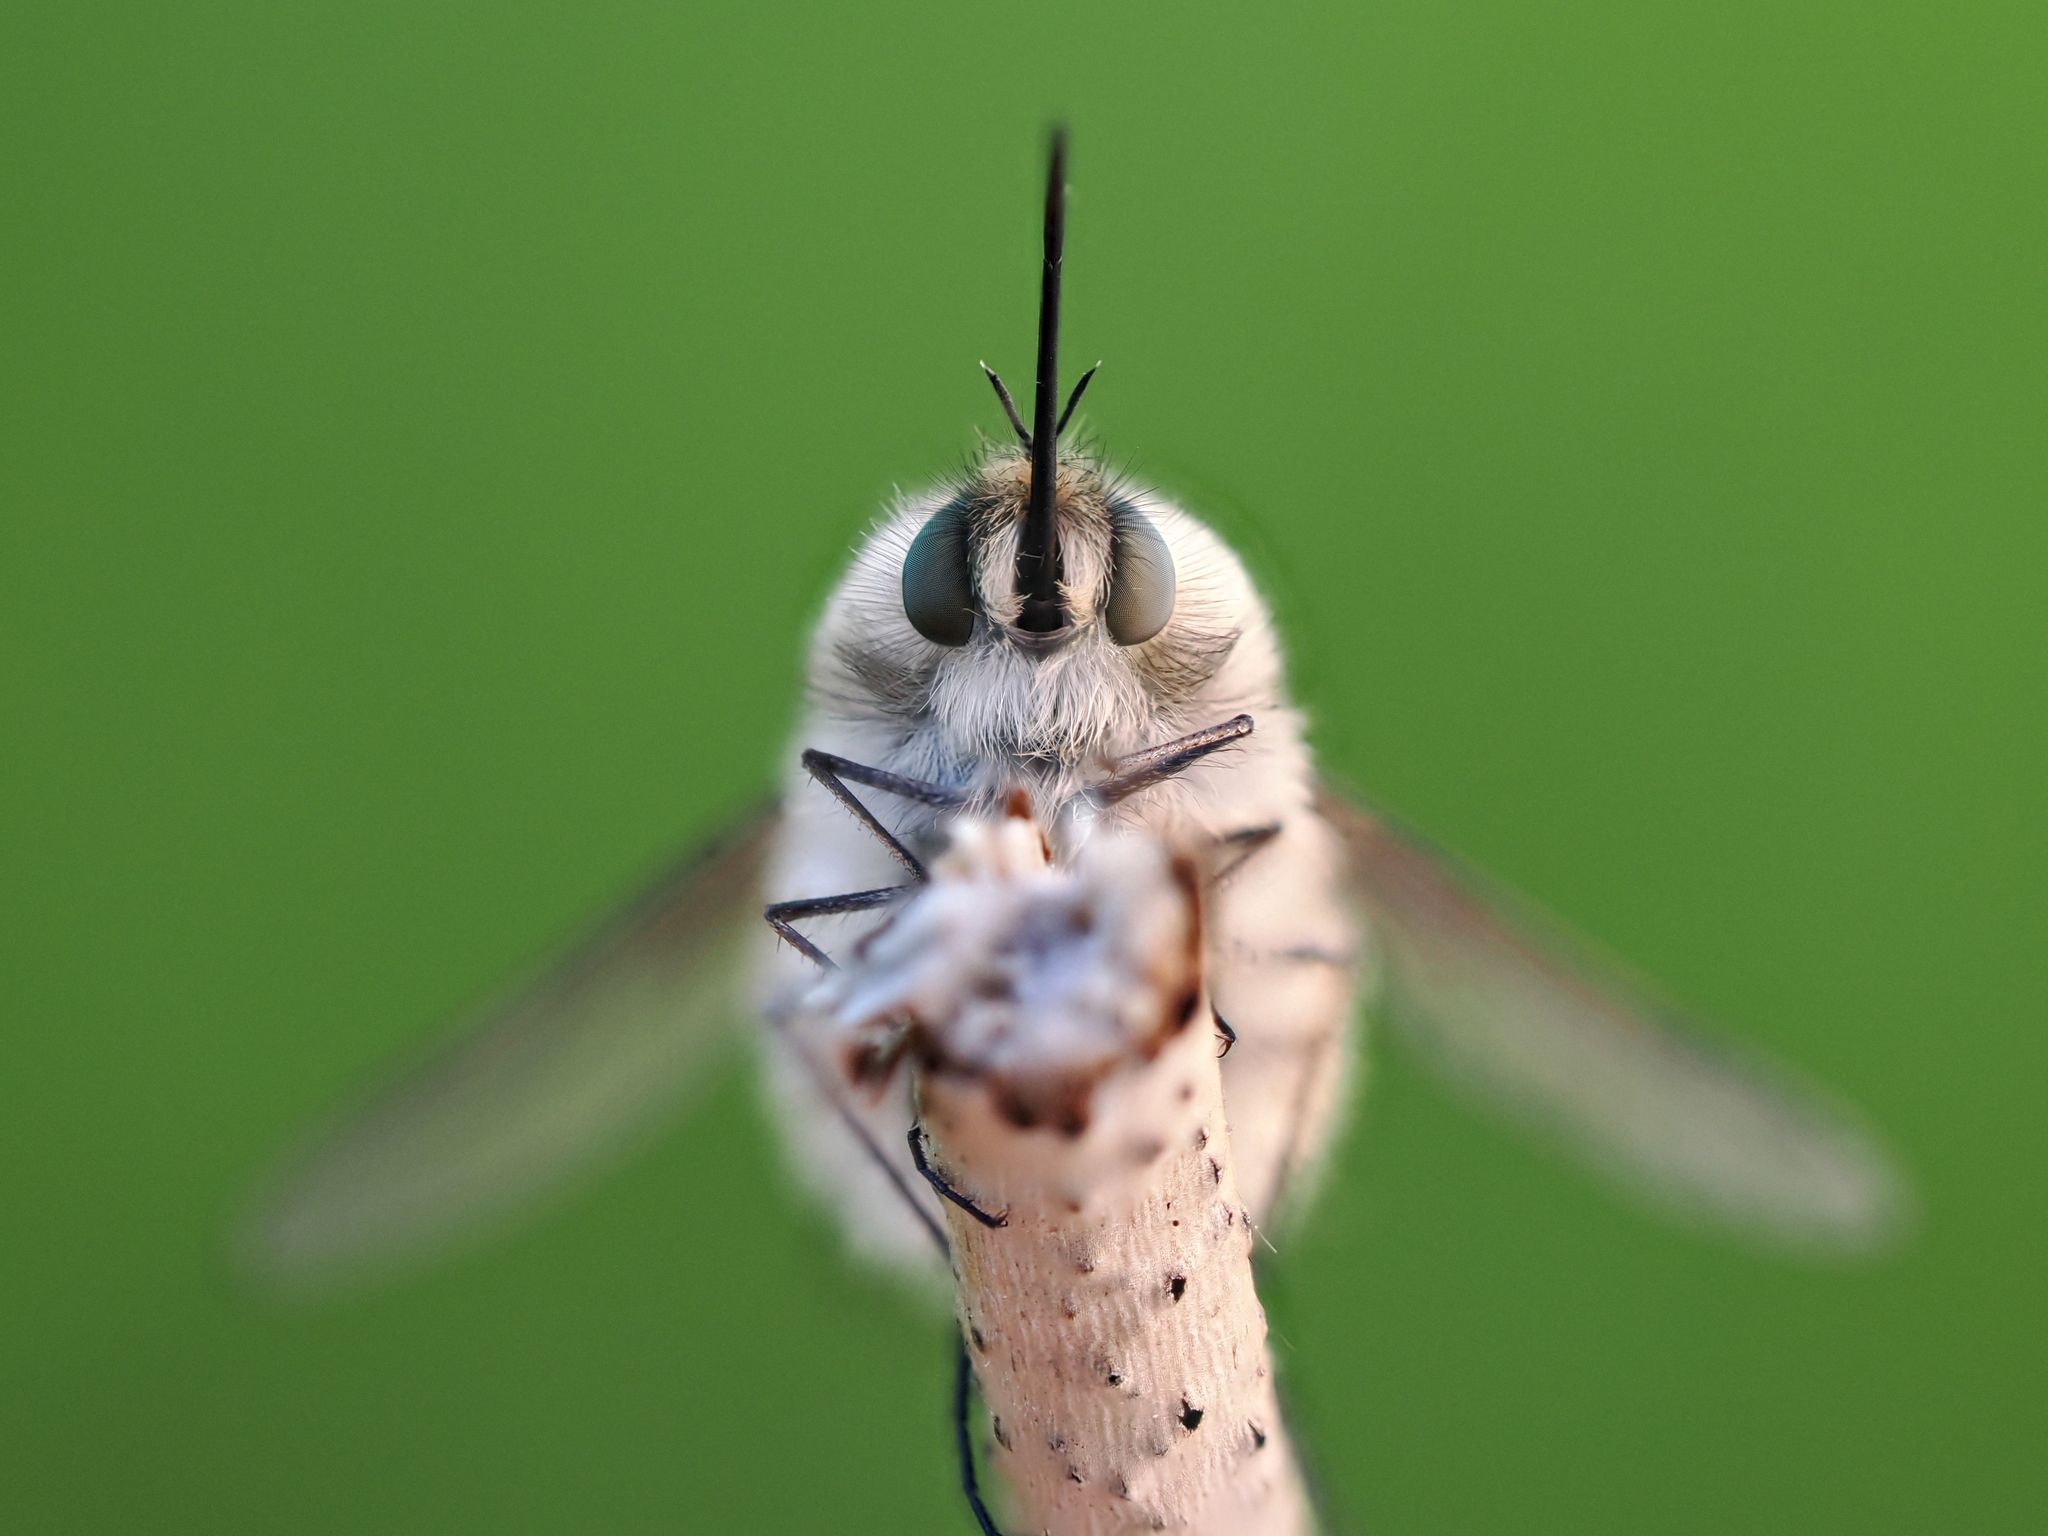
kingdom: Animalia
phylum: Arthropoda
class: Insecta
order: Diptera
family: Bombyliidae
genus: Bombylius
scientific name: Bombylius venosus
